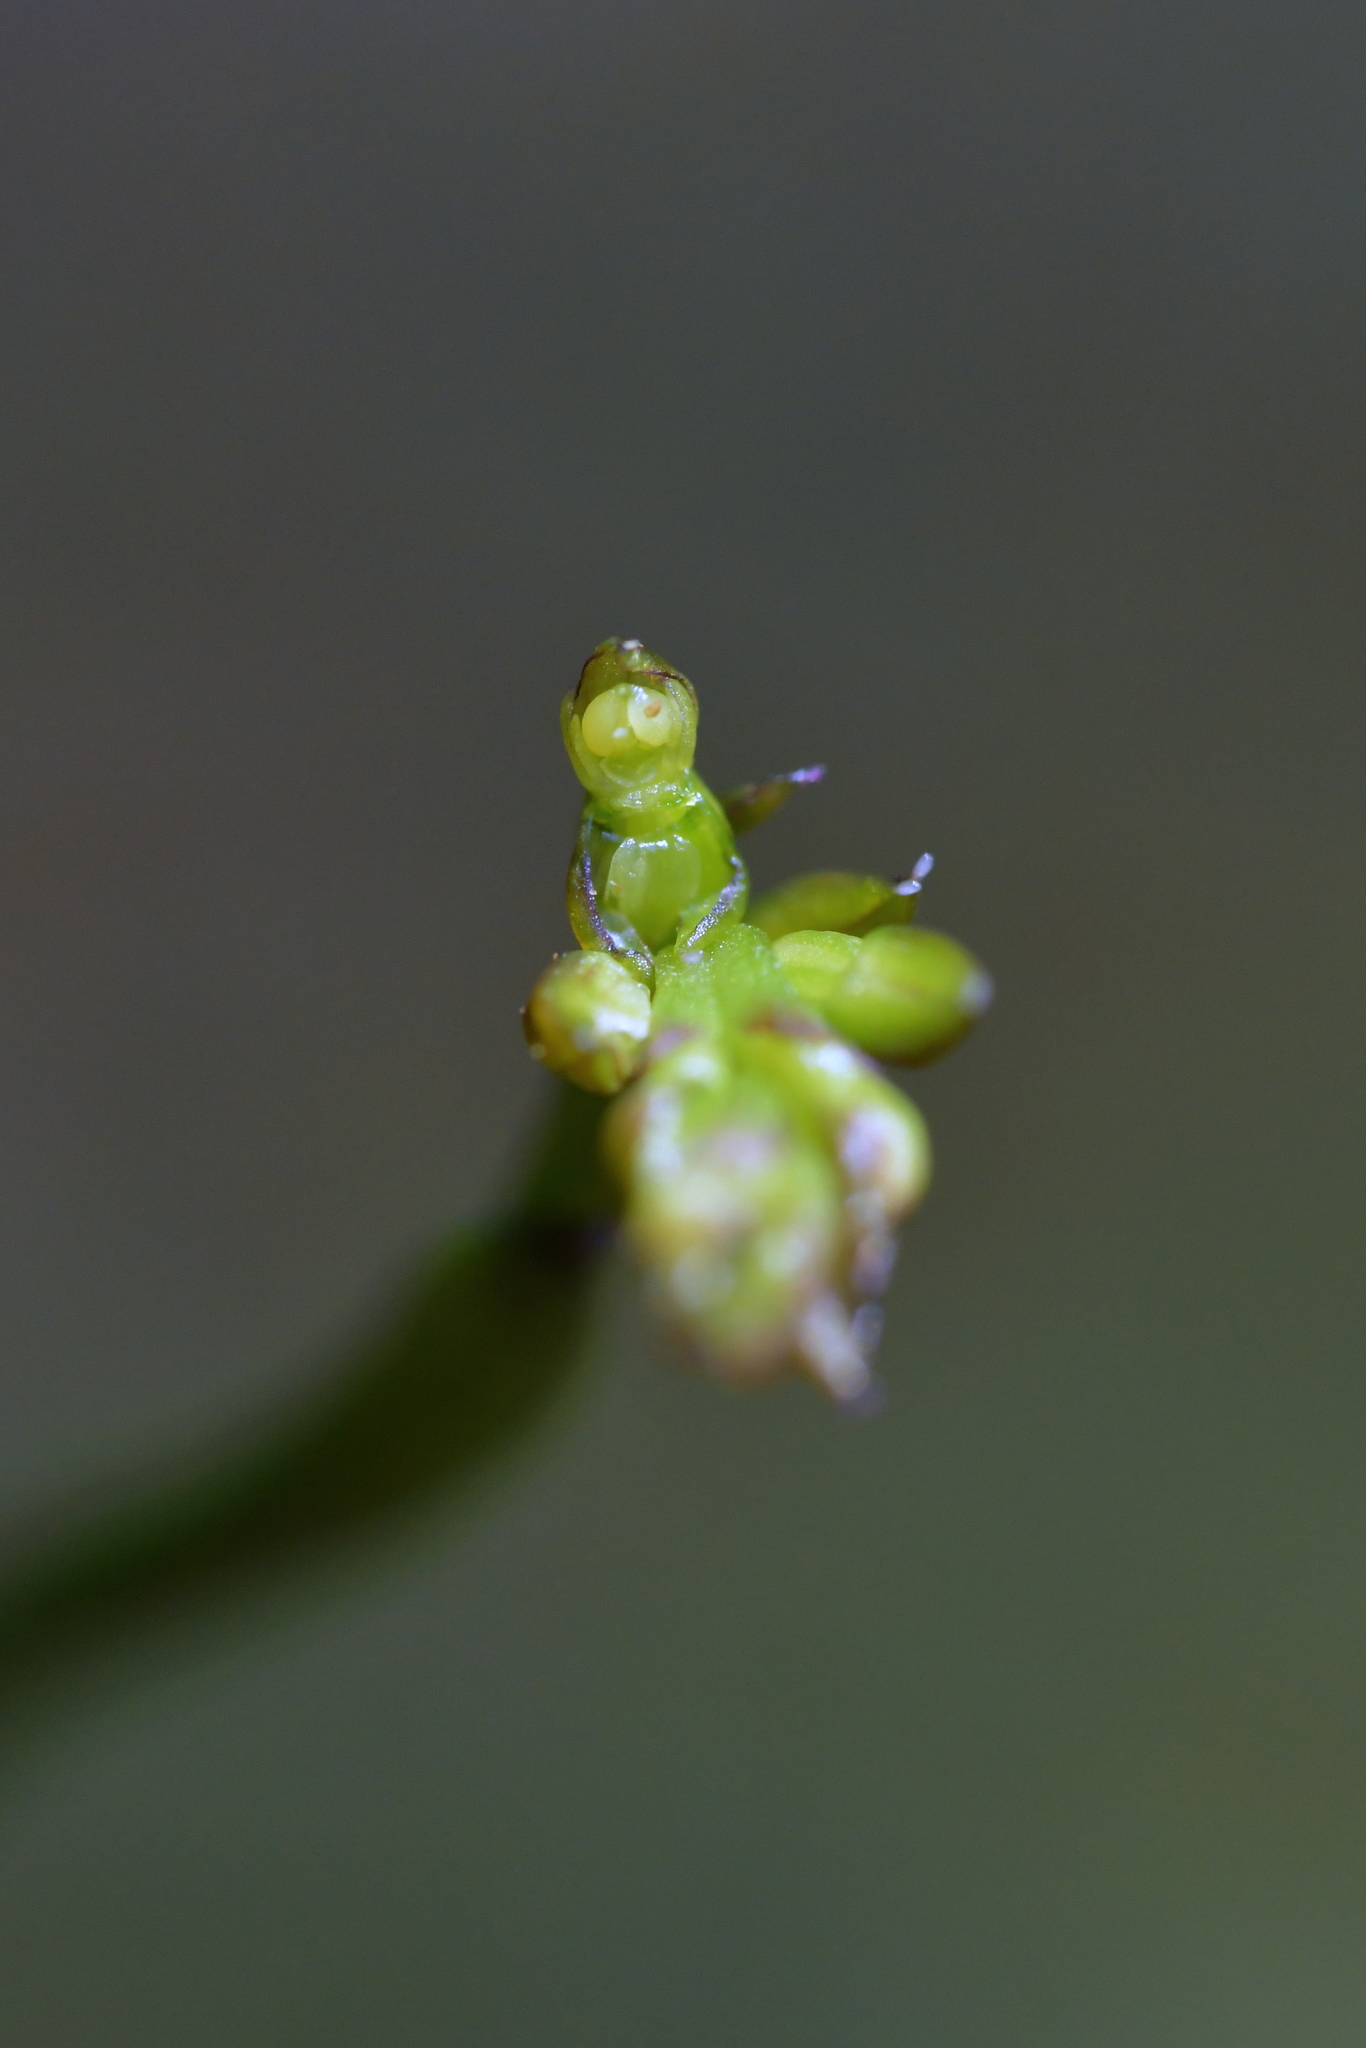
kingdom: Plantae
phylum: Tracheophyta
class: Liliopsida
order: Asparagales
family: Orchidaceae
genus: Genoplesium
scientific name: Genoplesium nudum
